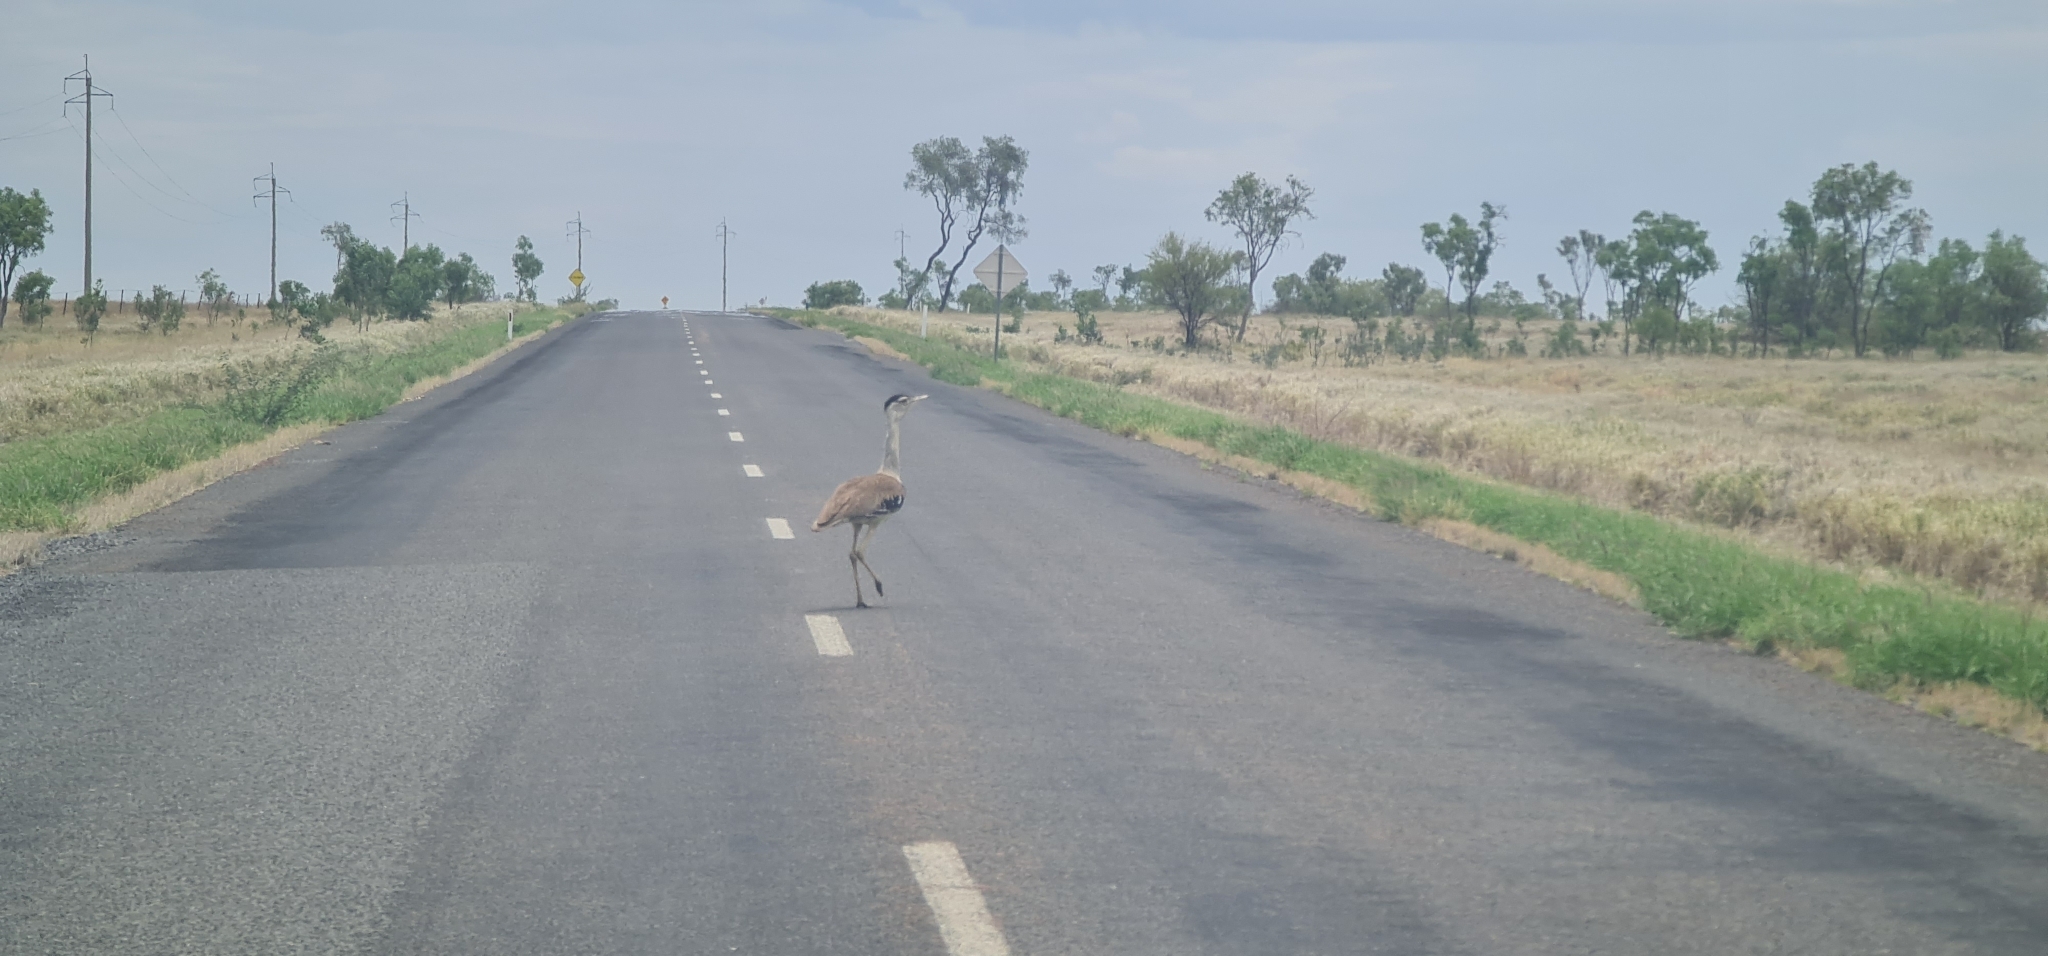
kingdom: Animalia
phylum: Chordata
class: Aves
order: Otidiformes
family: Otididae
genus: Ardeotis
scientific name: Ardeotis australis
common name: Australian bustard
